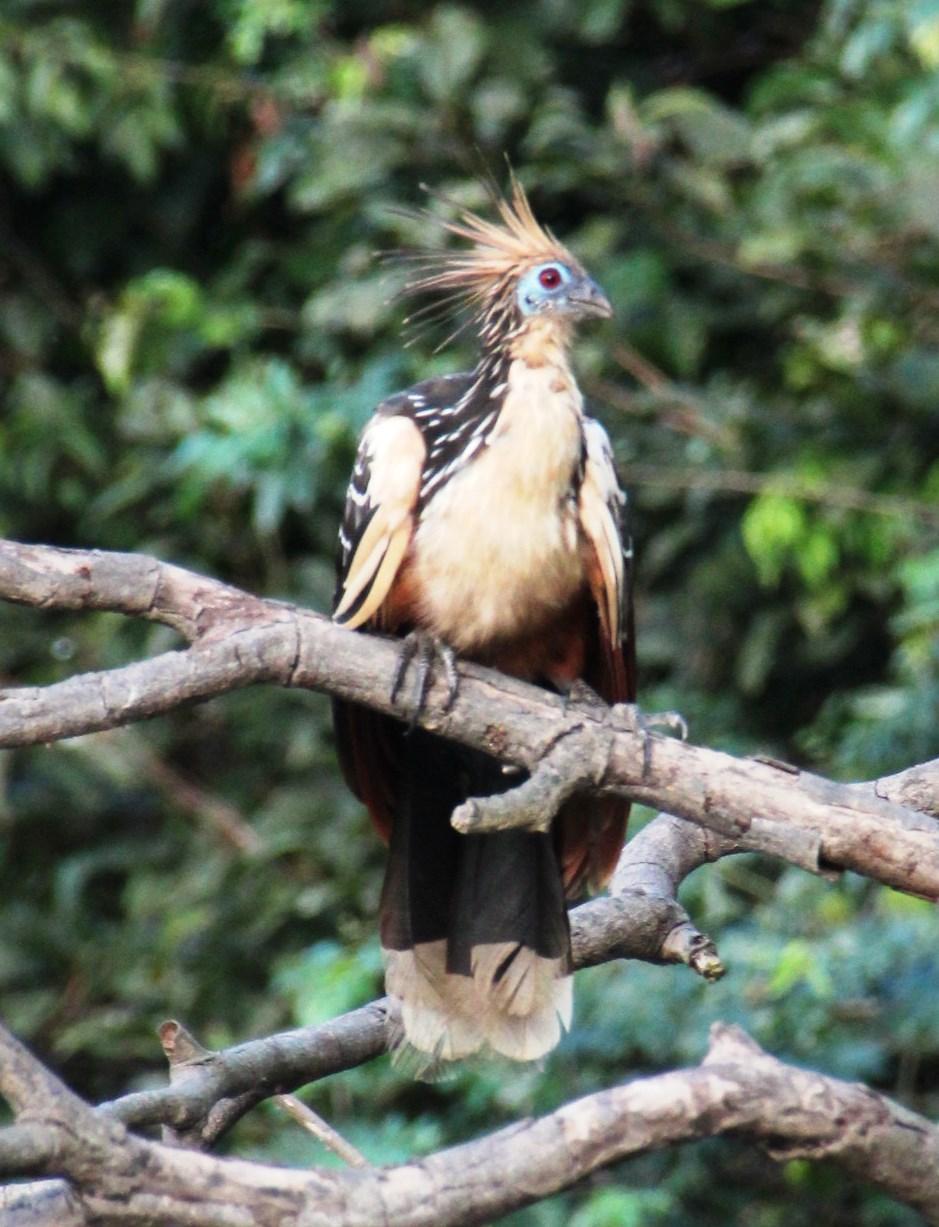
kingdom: Animalia
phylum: Chordata
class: Aves
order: Opisthocomiformes
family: Opisthocomidae
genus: Opisthocomus
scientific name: Opisthocomus hoazin
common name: Hoatzin
